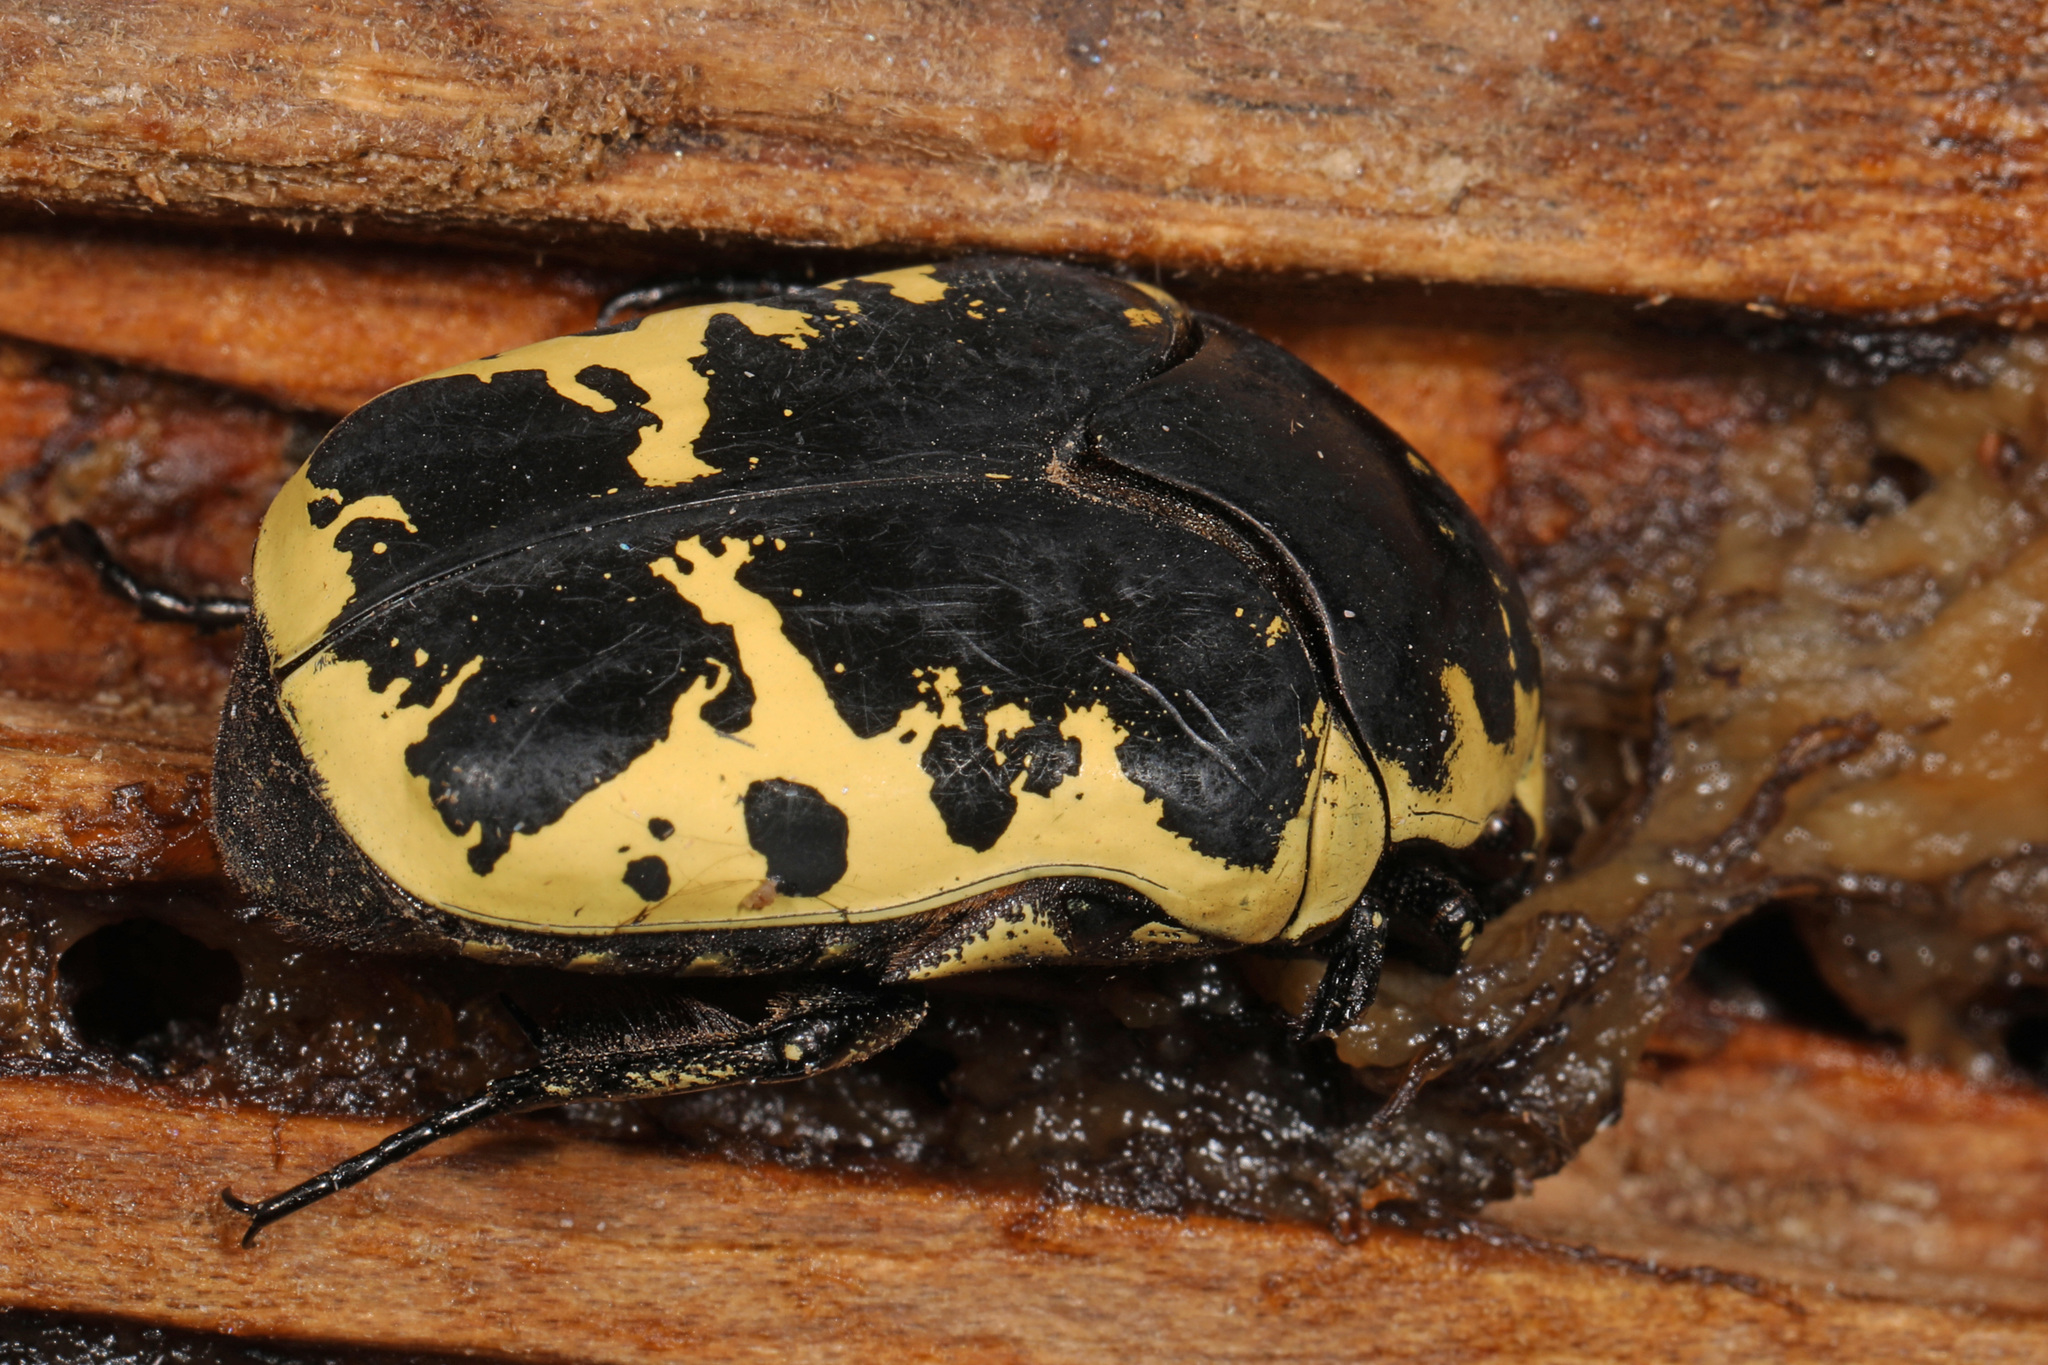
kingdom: Animalia
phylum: Arthropoda
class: Insecta
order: Coleoptera
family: Scarabaeidae
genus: Gymnetis
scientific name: Gymnetis thula
